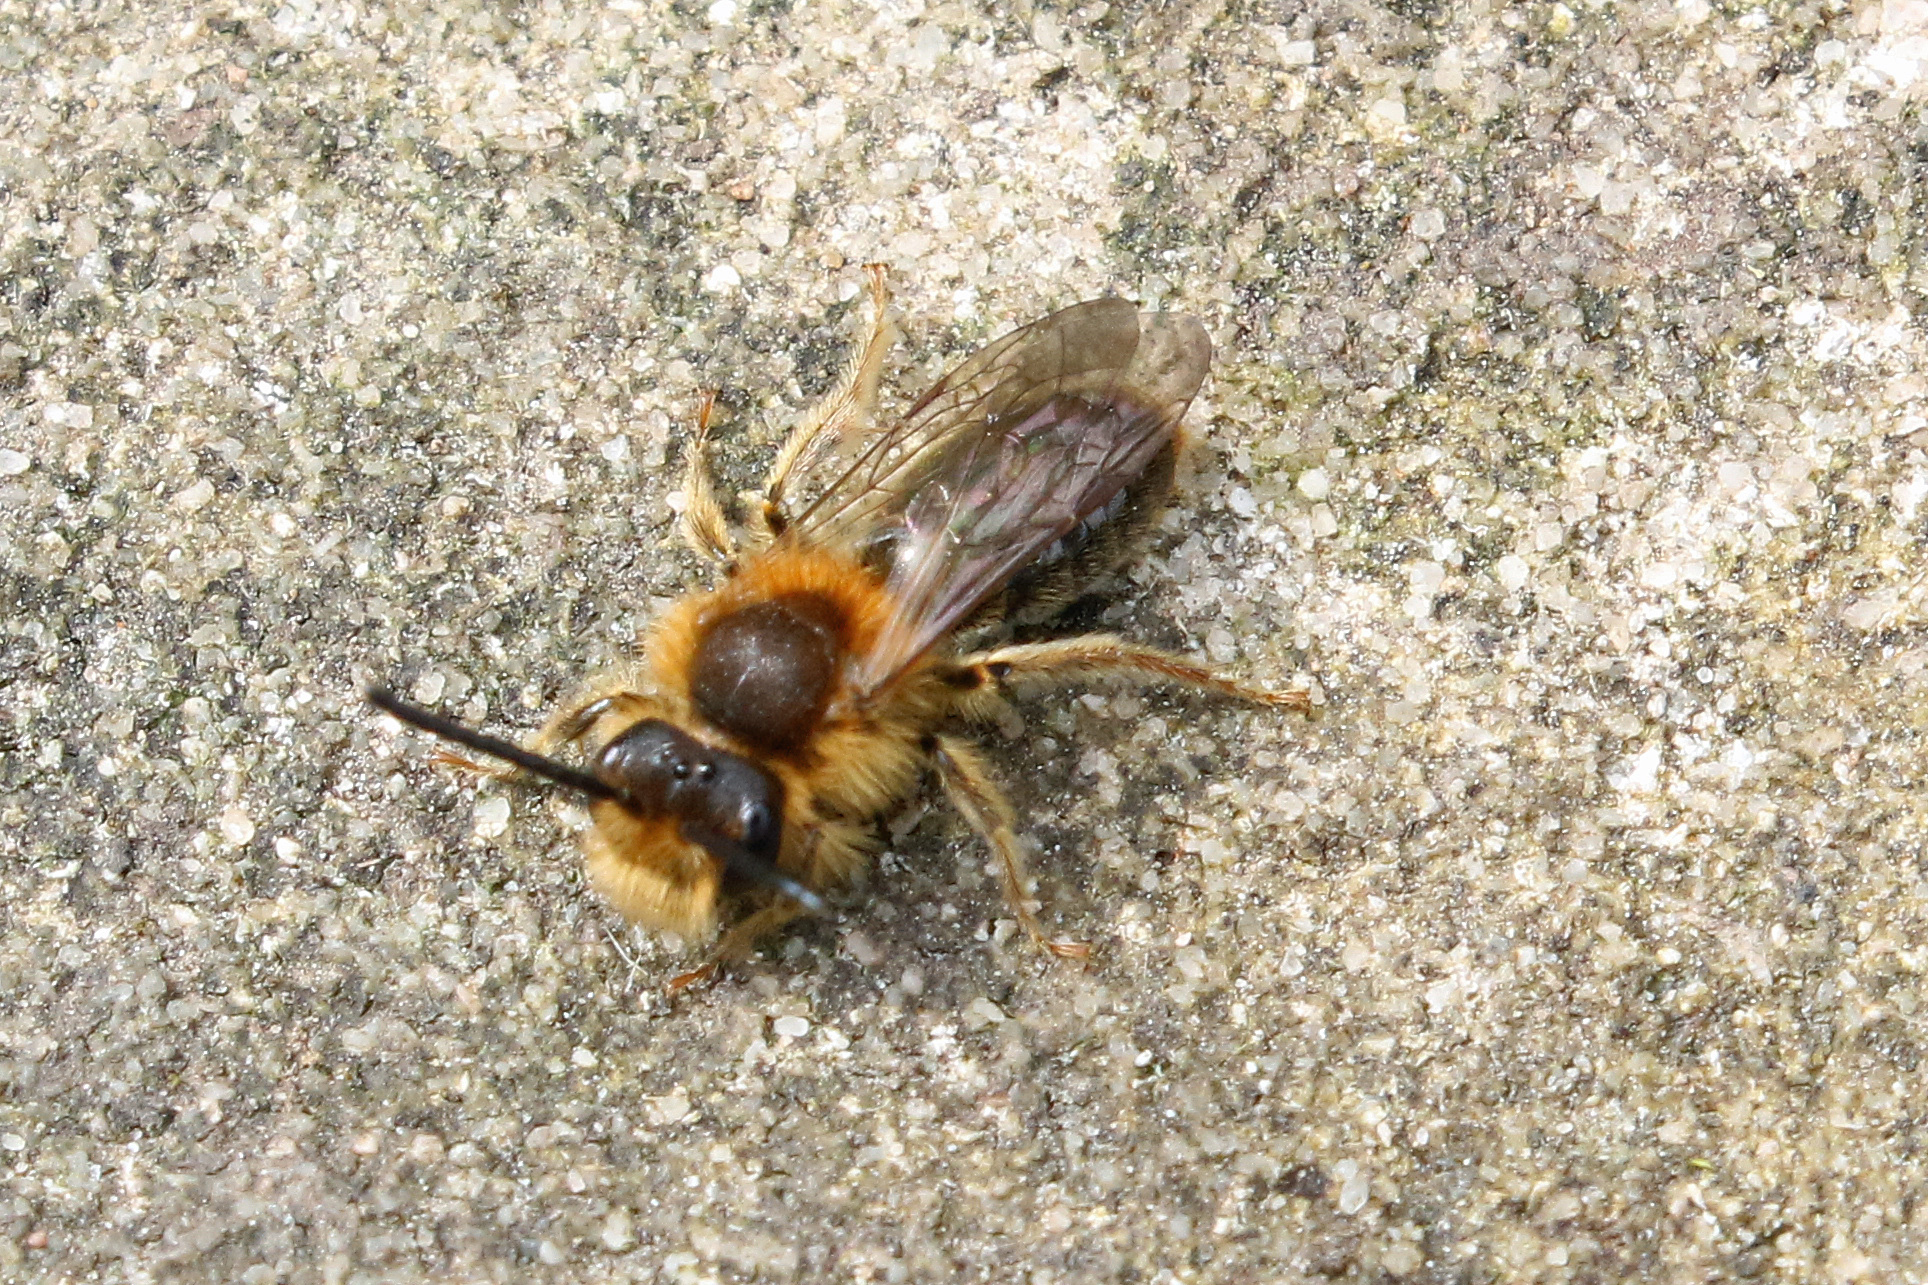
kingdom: Animalia
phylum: Arthropoda
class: Insecta
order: Hymenoptera
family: Andrenidae
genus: Andrena
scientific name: Andrena haemorrhoa
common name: Early mining bee
